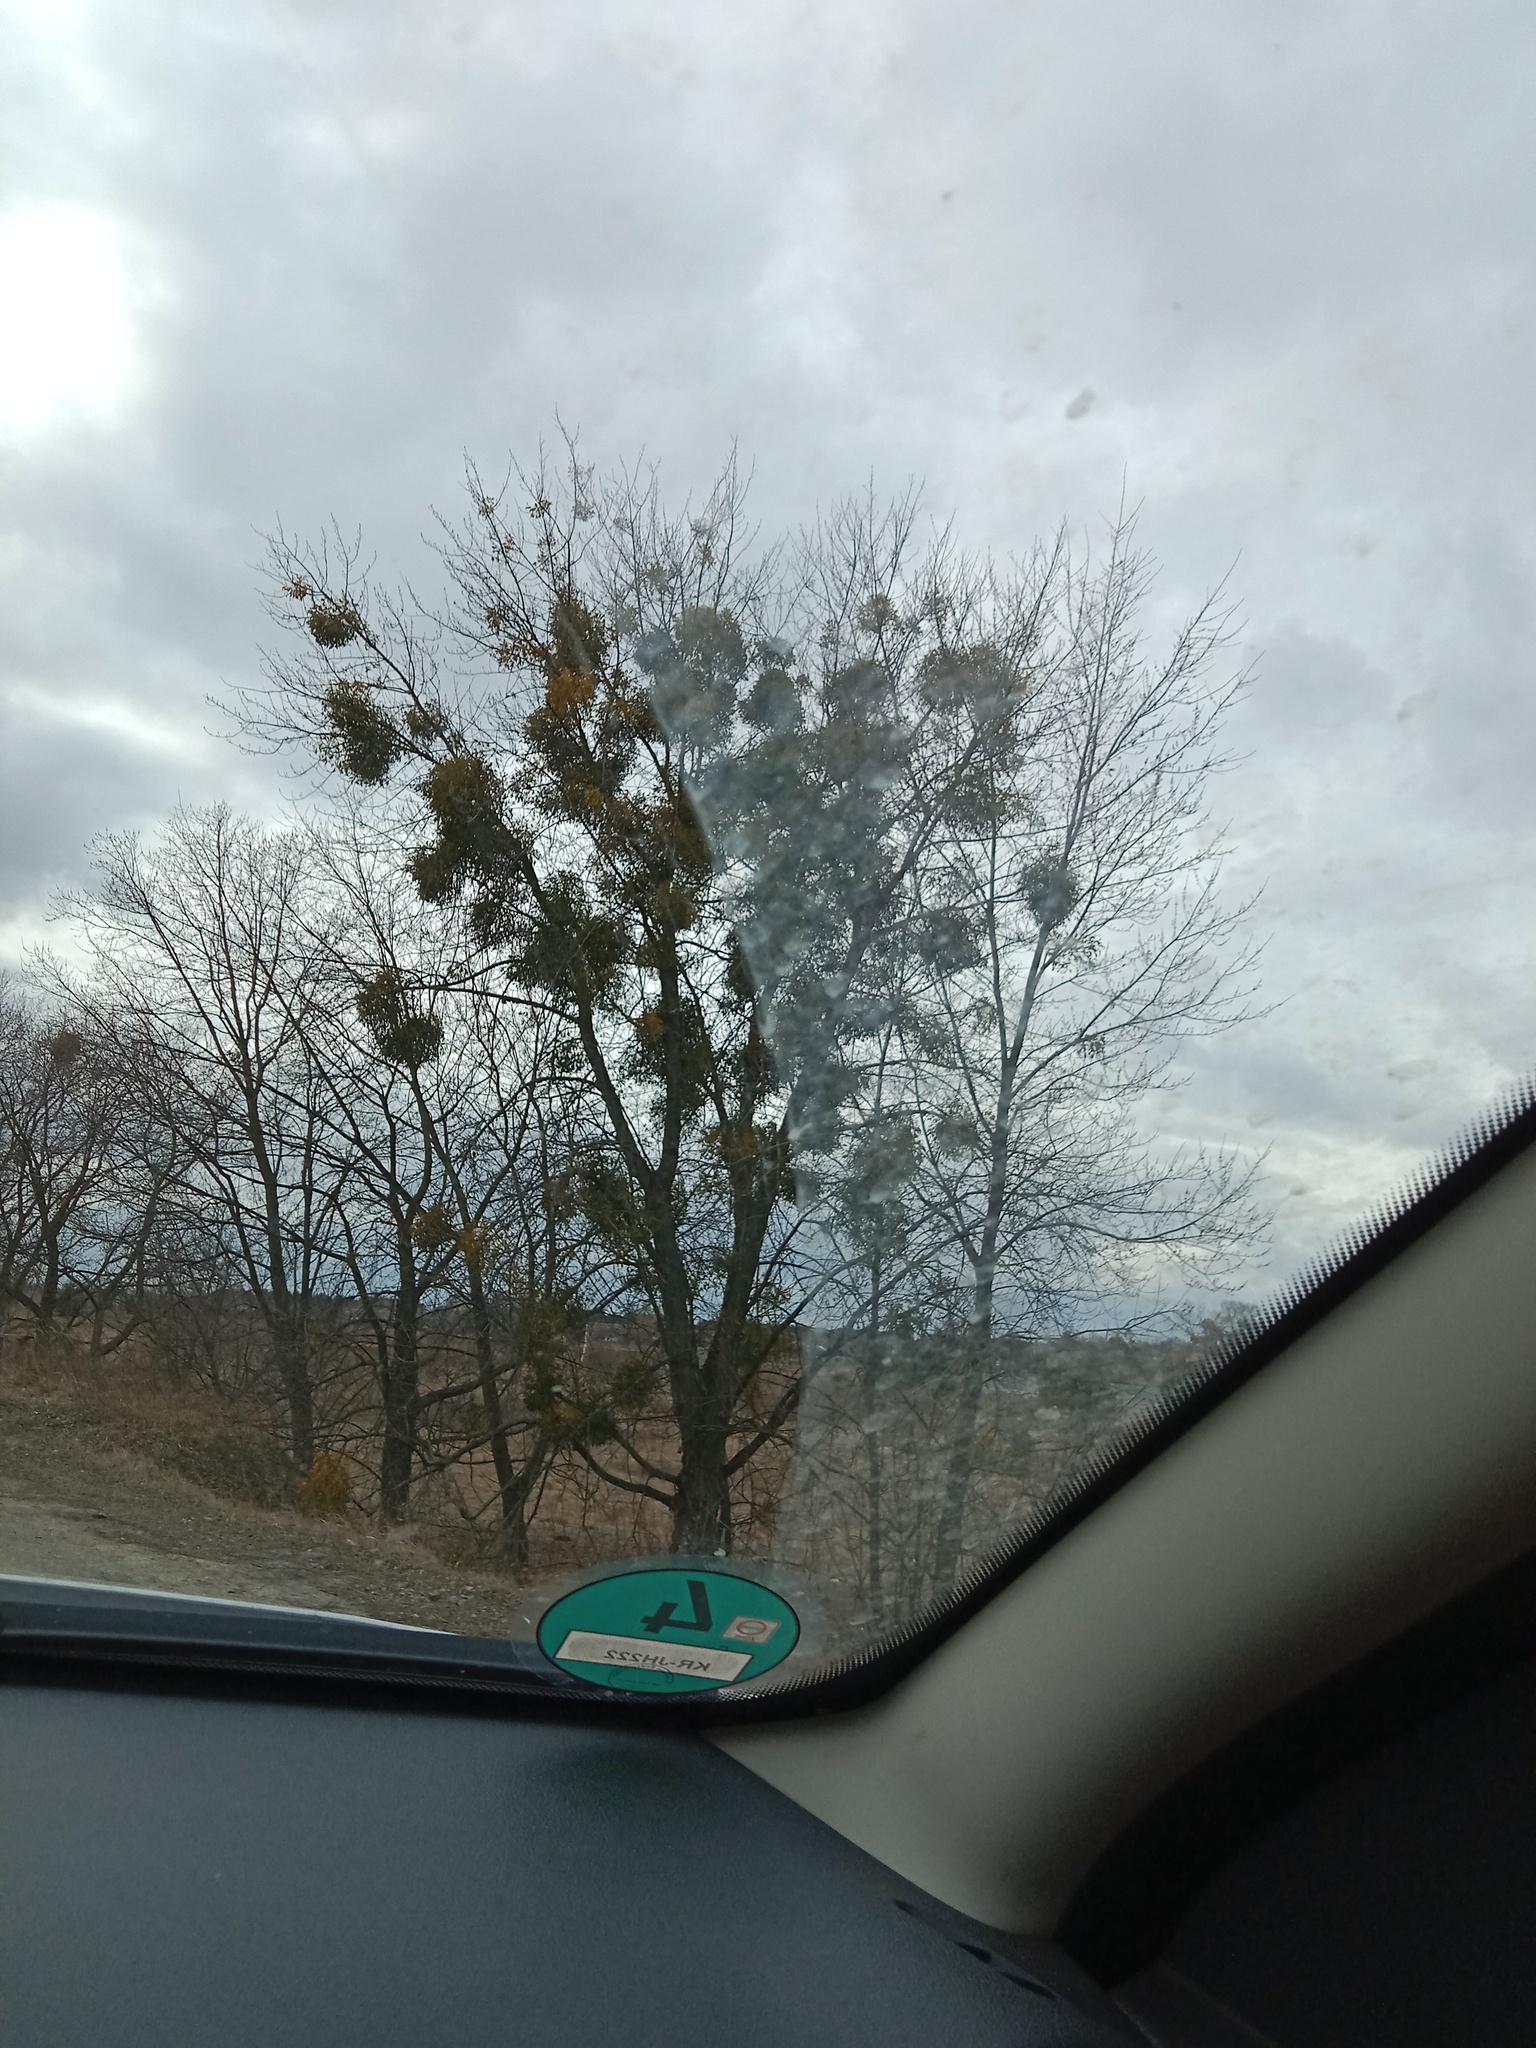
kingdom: Plantae
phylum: Tracheophyta
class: Magnoliopsida
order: Santalales
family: Viscaceae
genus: Viscum
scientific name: Viscum album
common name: Mistletoe
